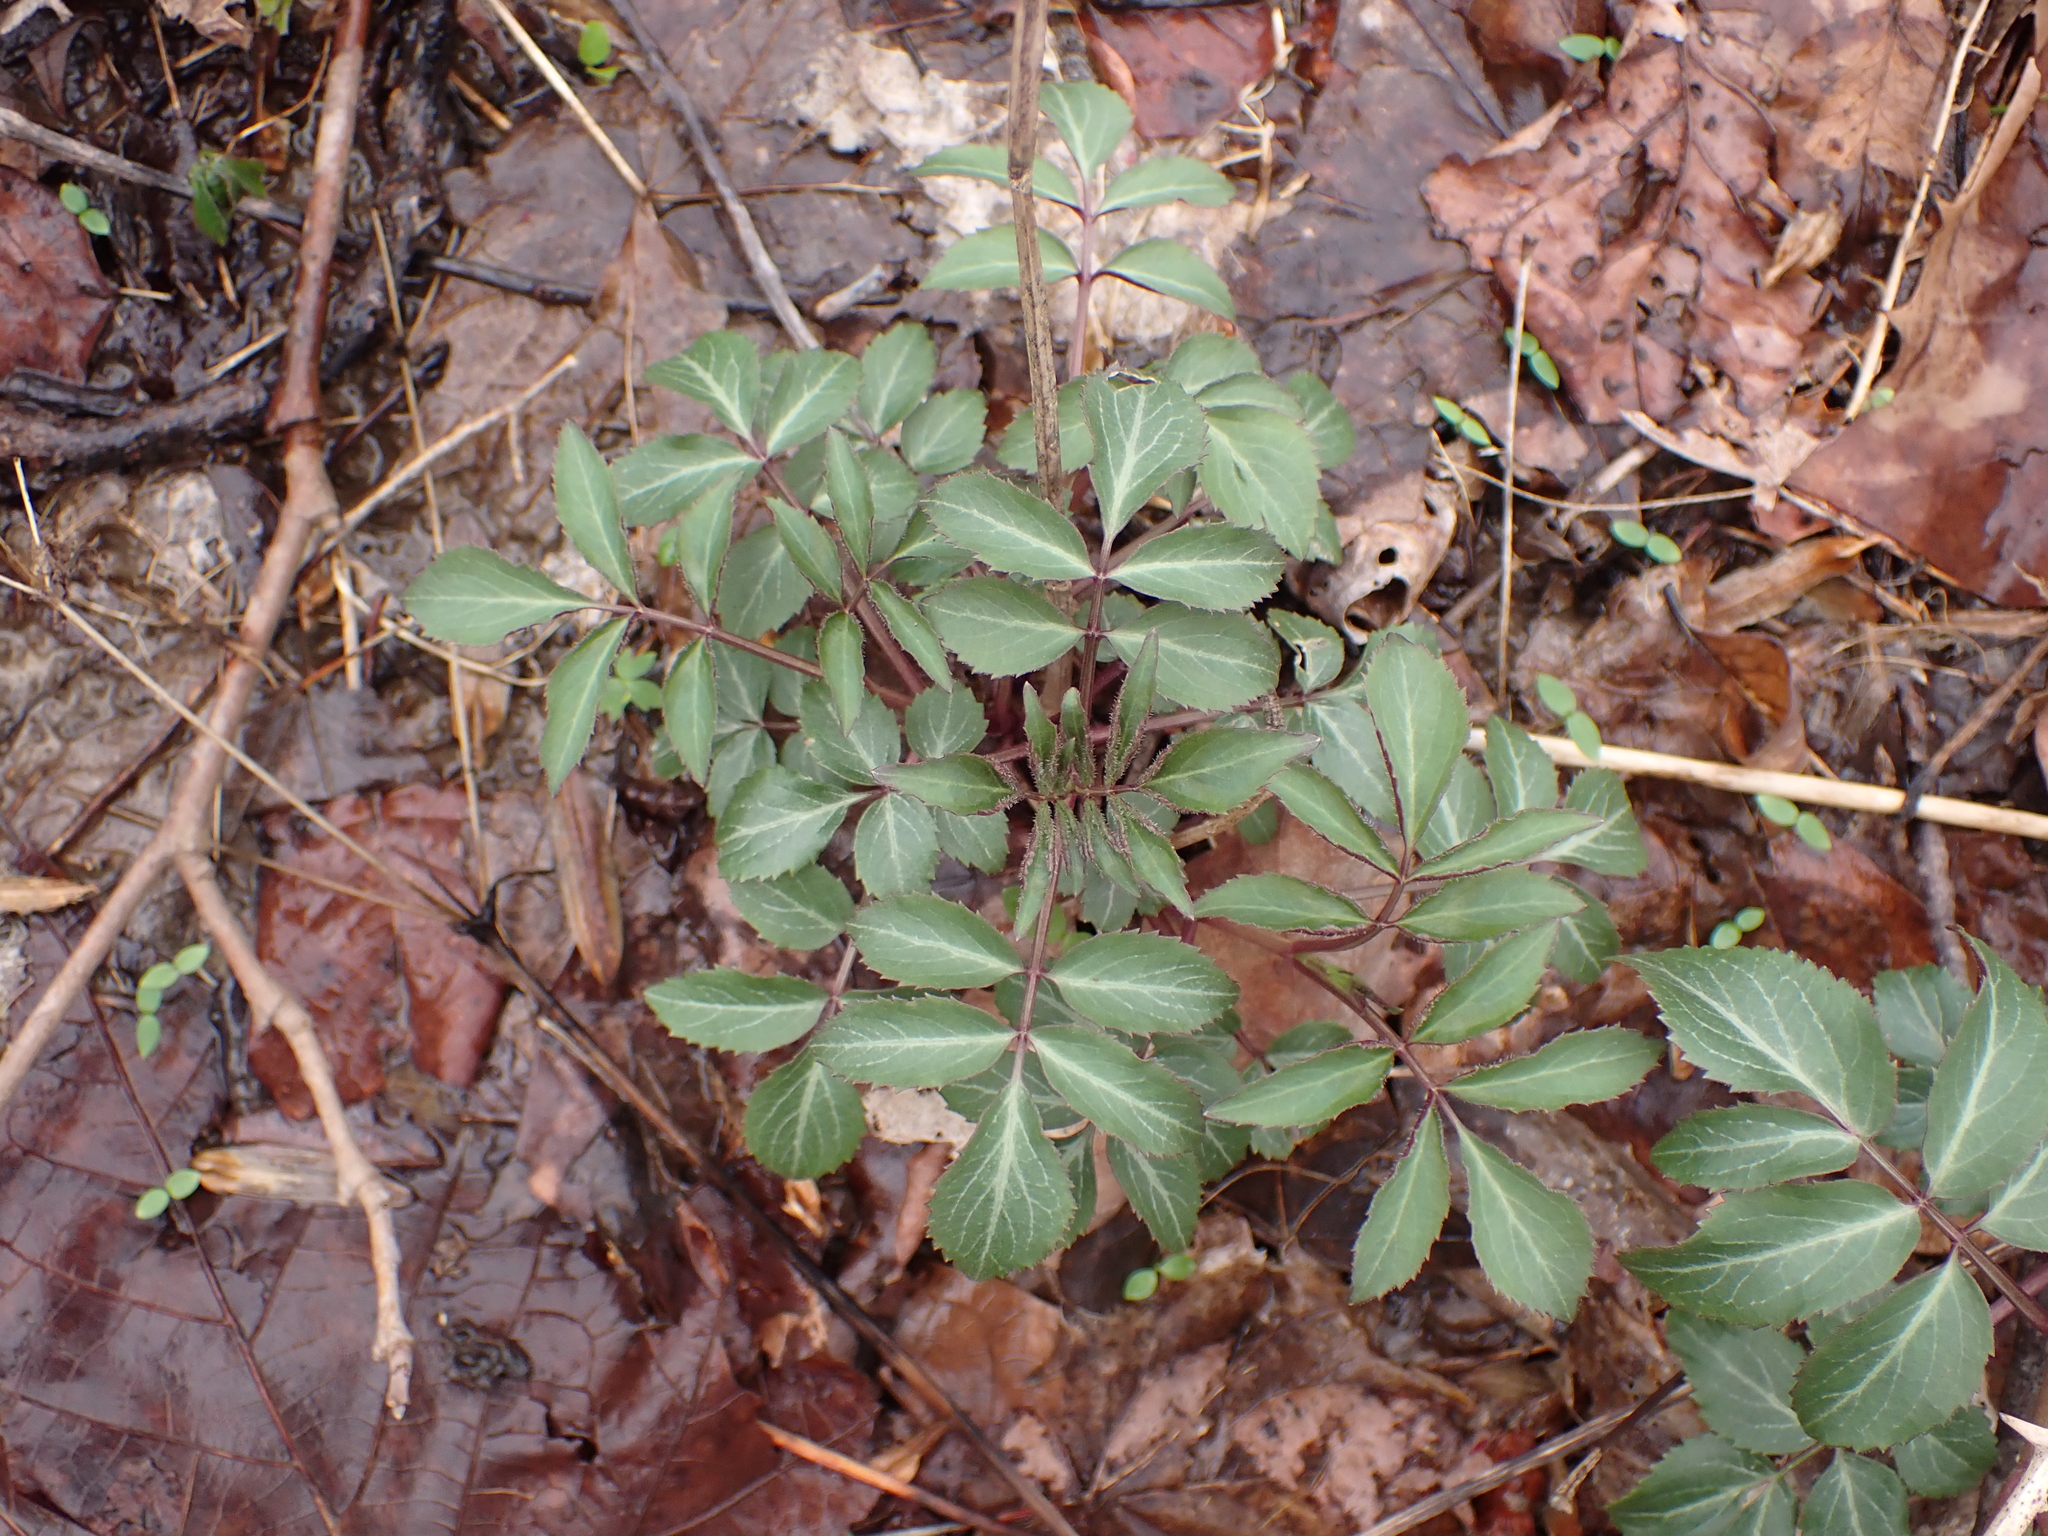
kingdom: Plantae
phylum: Tracheophyta
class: Magnoliopsida
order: Dipsacales
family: Viburnaceae
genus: Sambucus
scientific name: Sambucus canadensis
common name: American elder
